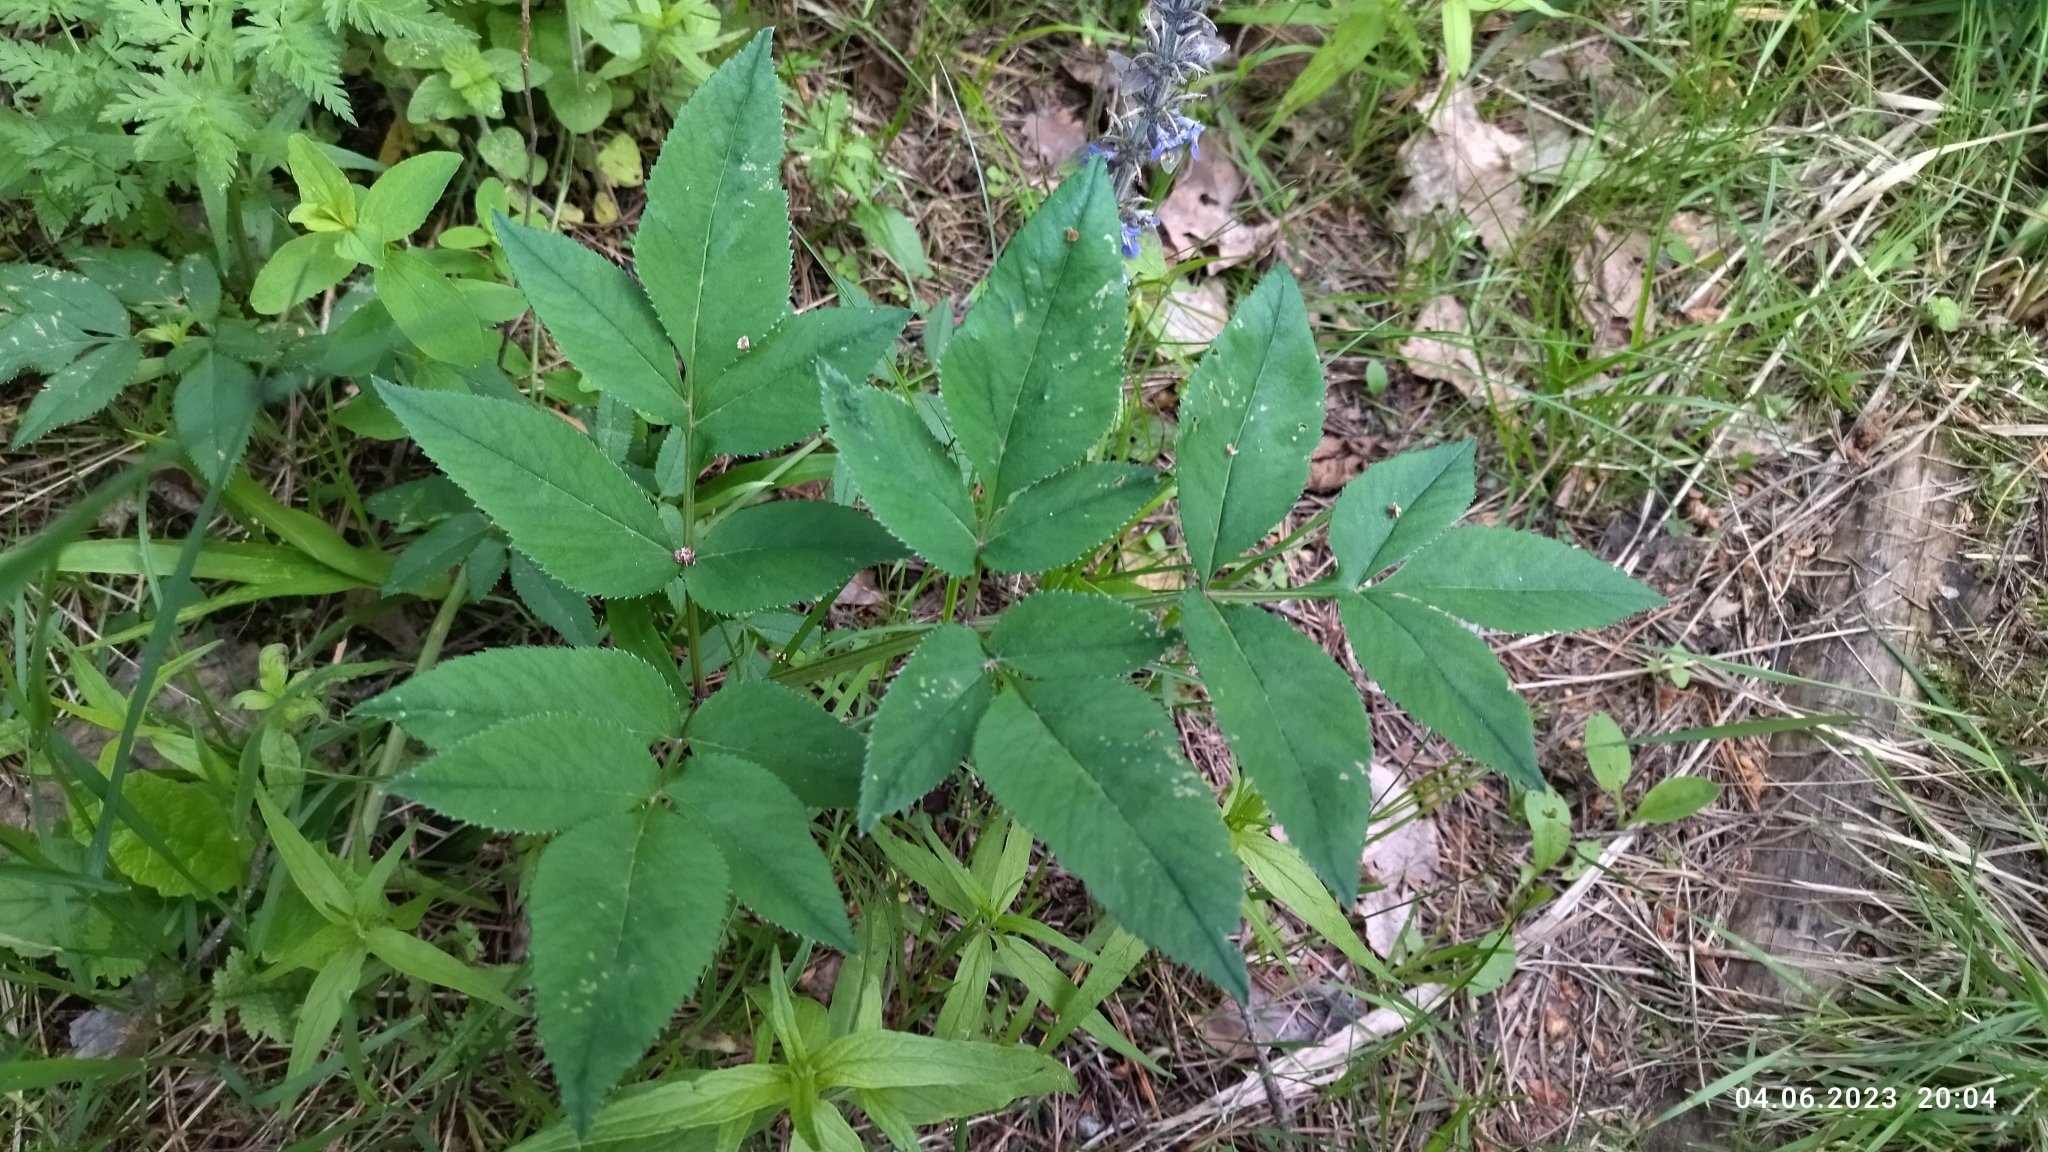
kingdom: Plantae
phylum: Tracheophyta
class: Magnoliopsida
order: Apiales
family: Apiaceae
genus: Angelica
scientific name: Angelica sylvestris
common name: Wild angelica
